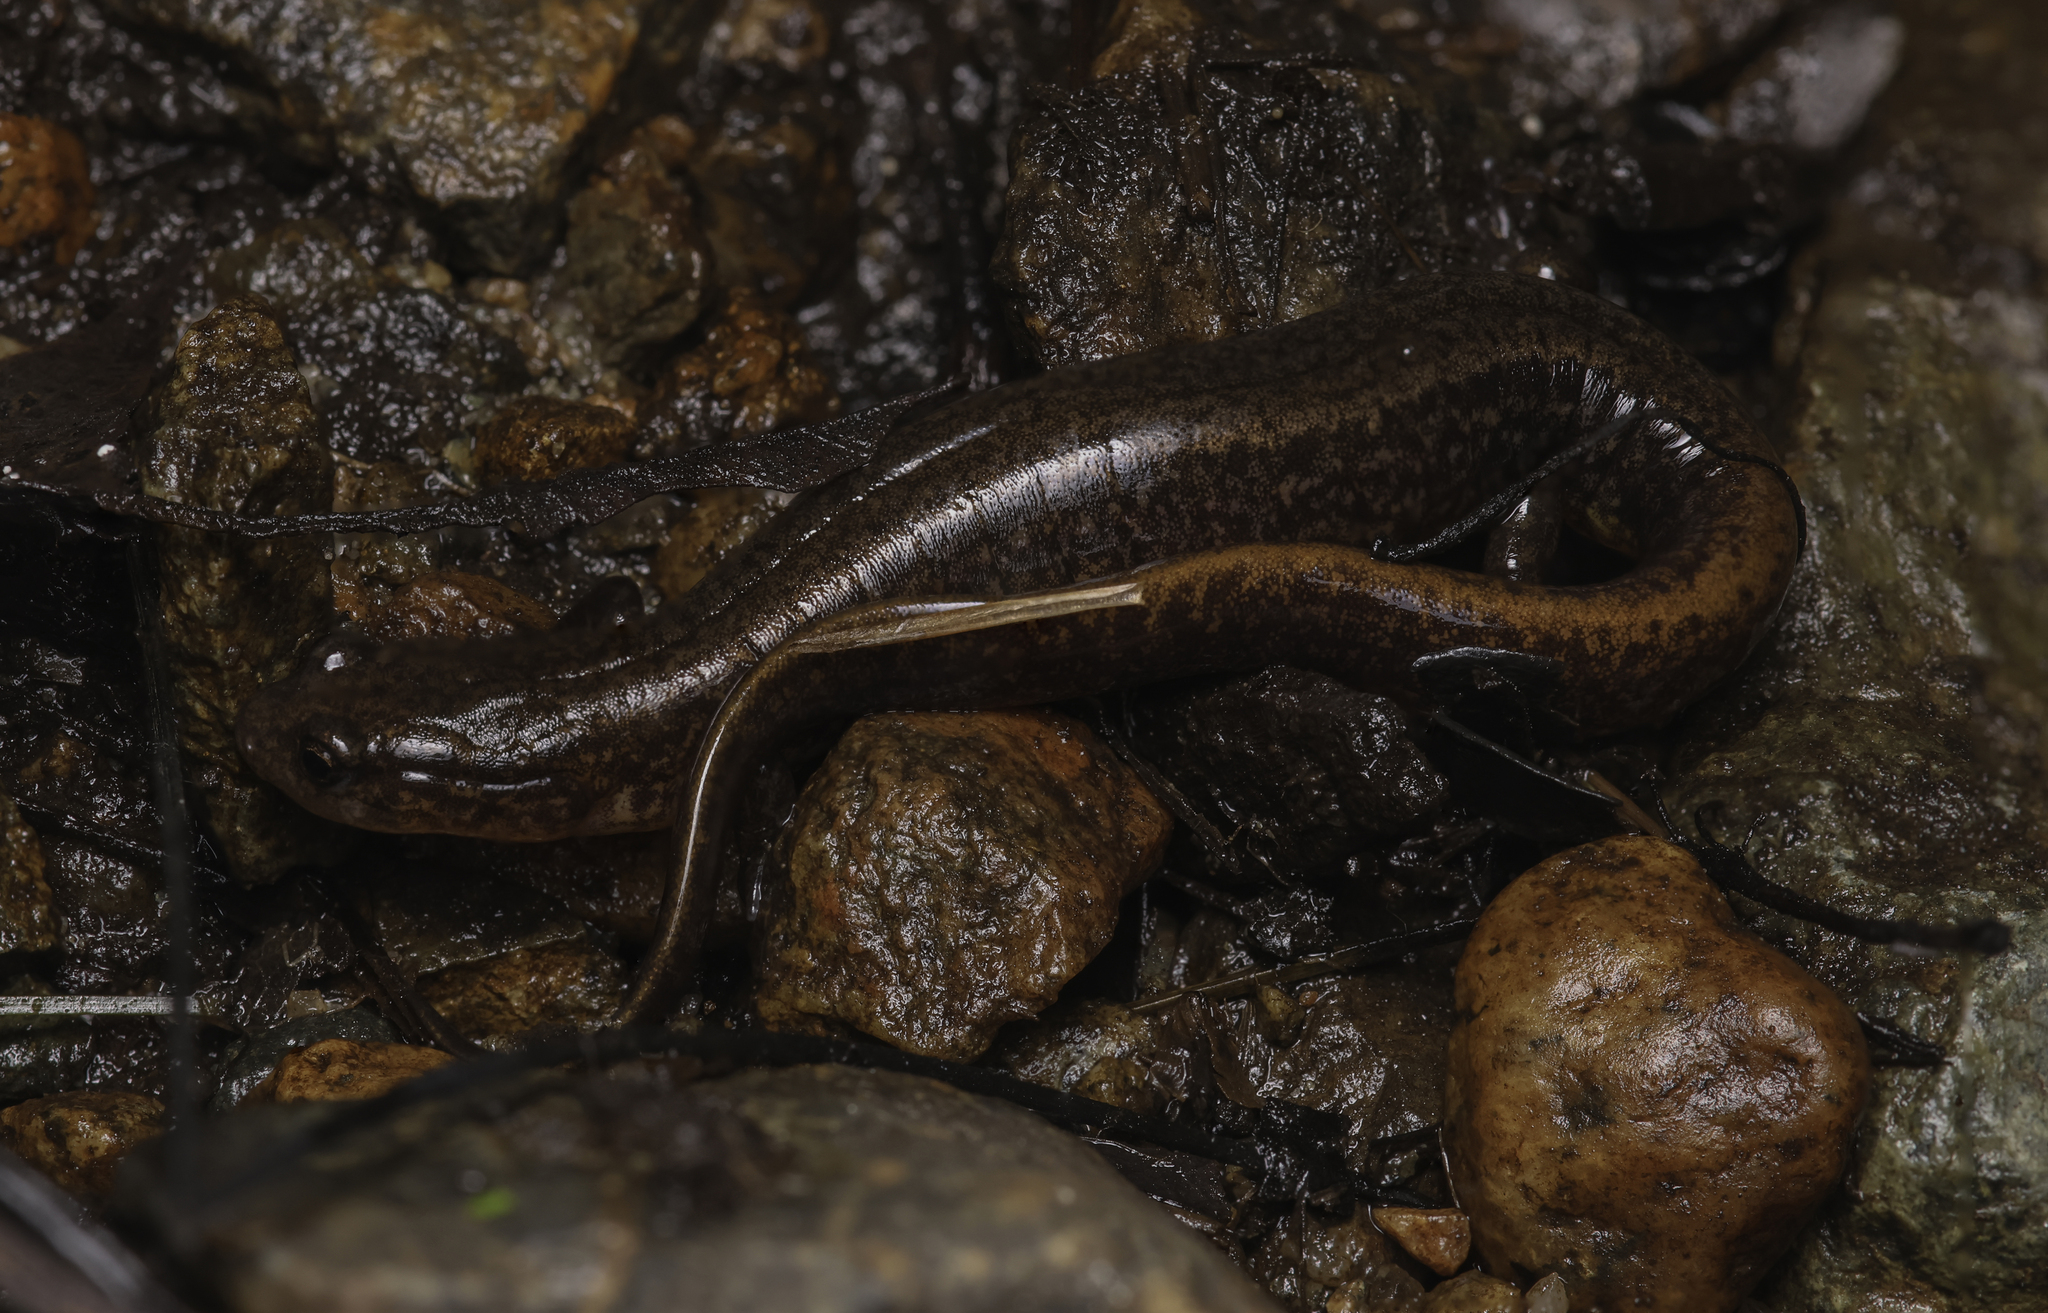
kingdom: Animalia
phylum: Chordata
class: Amphibia
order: Caudata
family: Plethodontidae
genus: Eurycea
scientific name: Eurycea bislineata
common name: Northern two-lined salamander
